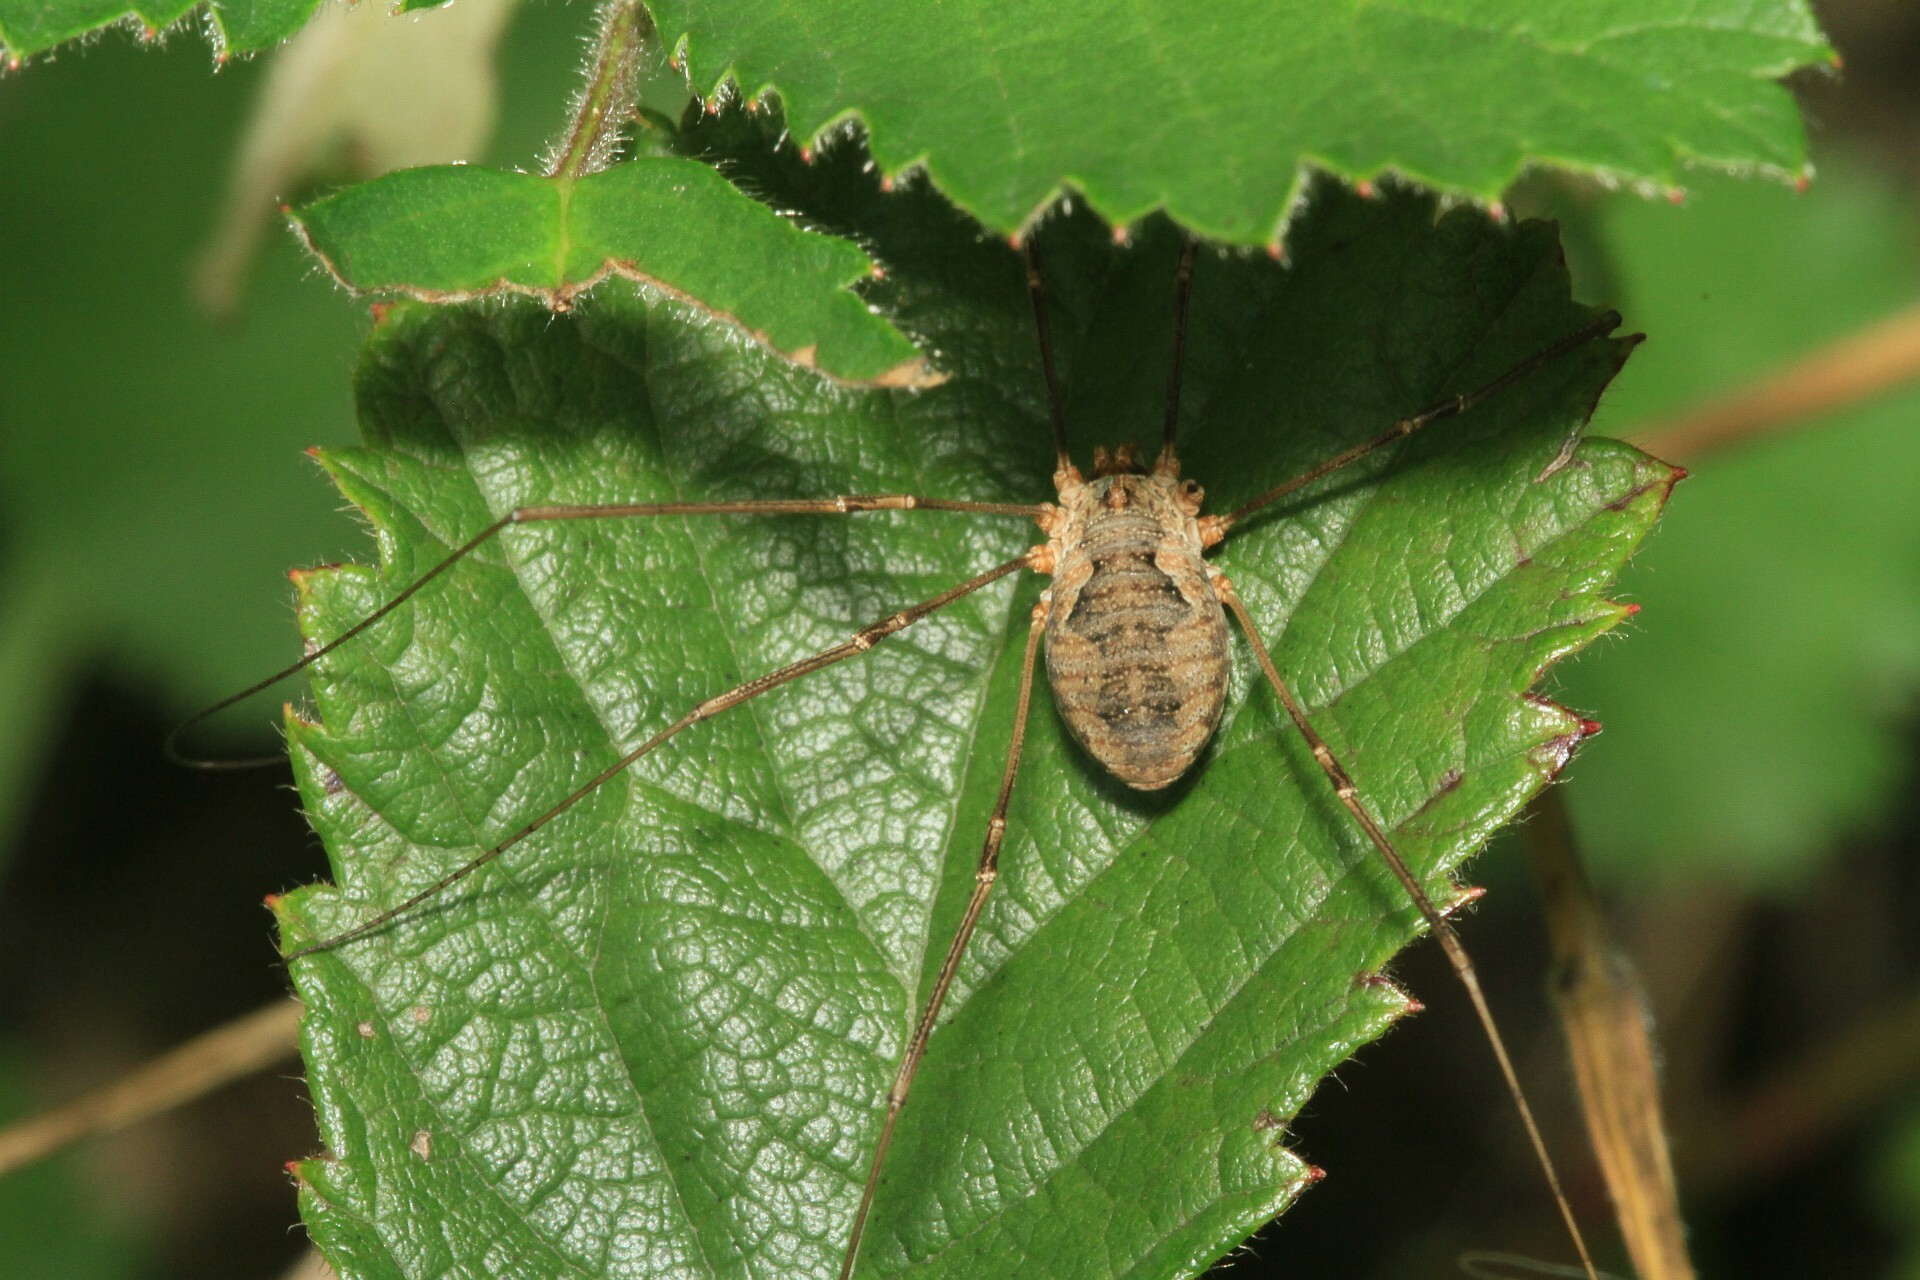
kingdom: Animalia
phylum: Arthropoda
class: Arachnida
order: Opiliones
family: Phalangiidae
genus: Phalangium
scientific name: Phalangium opilio
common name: Daddy longleg
